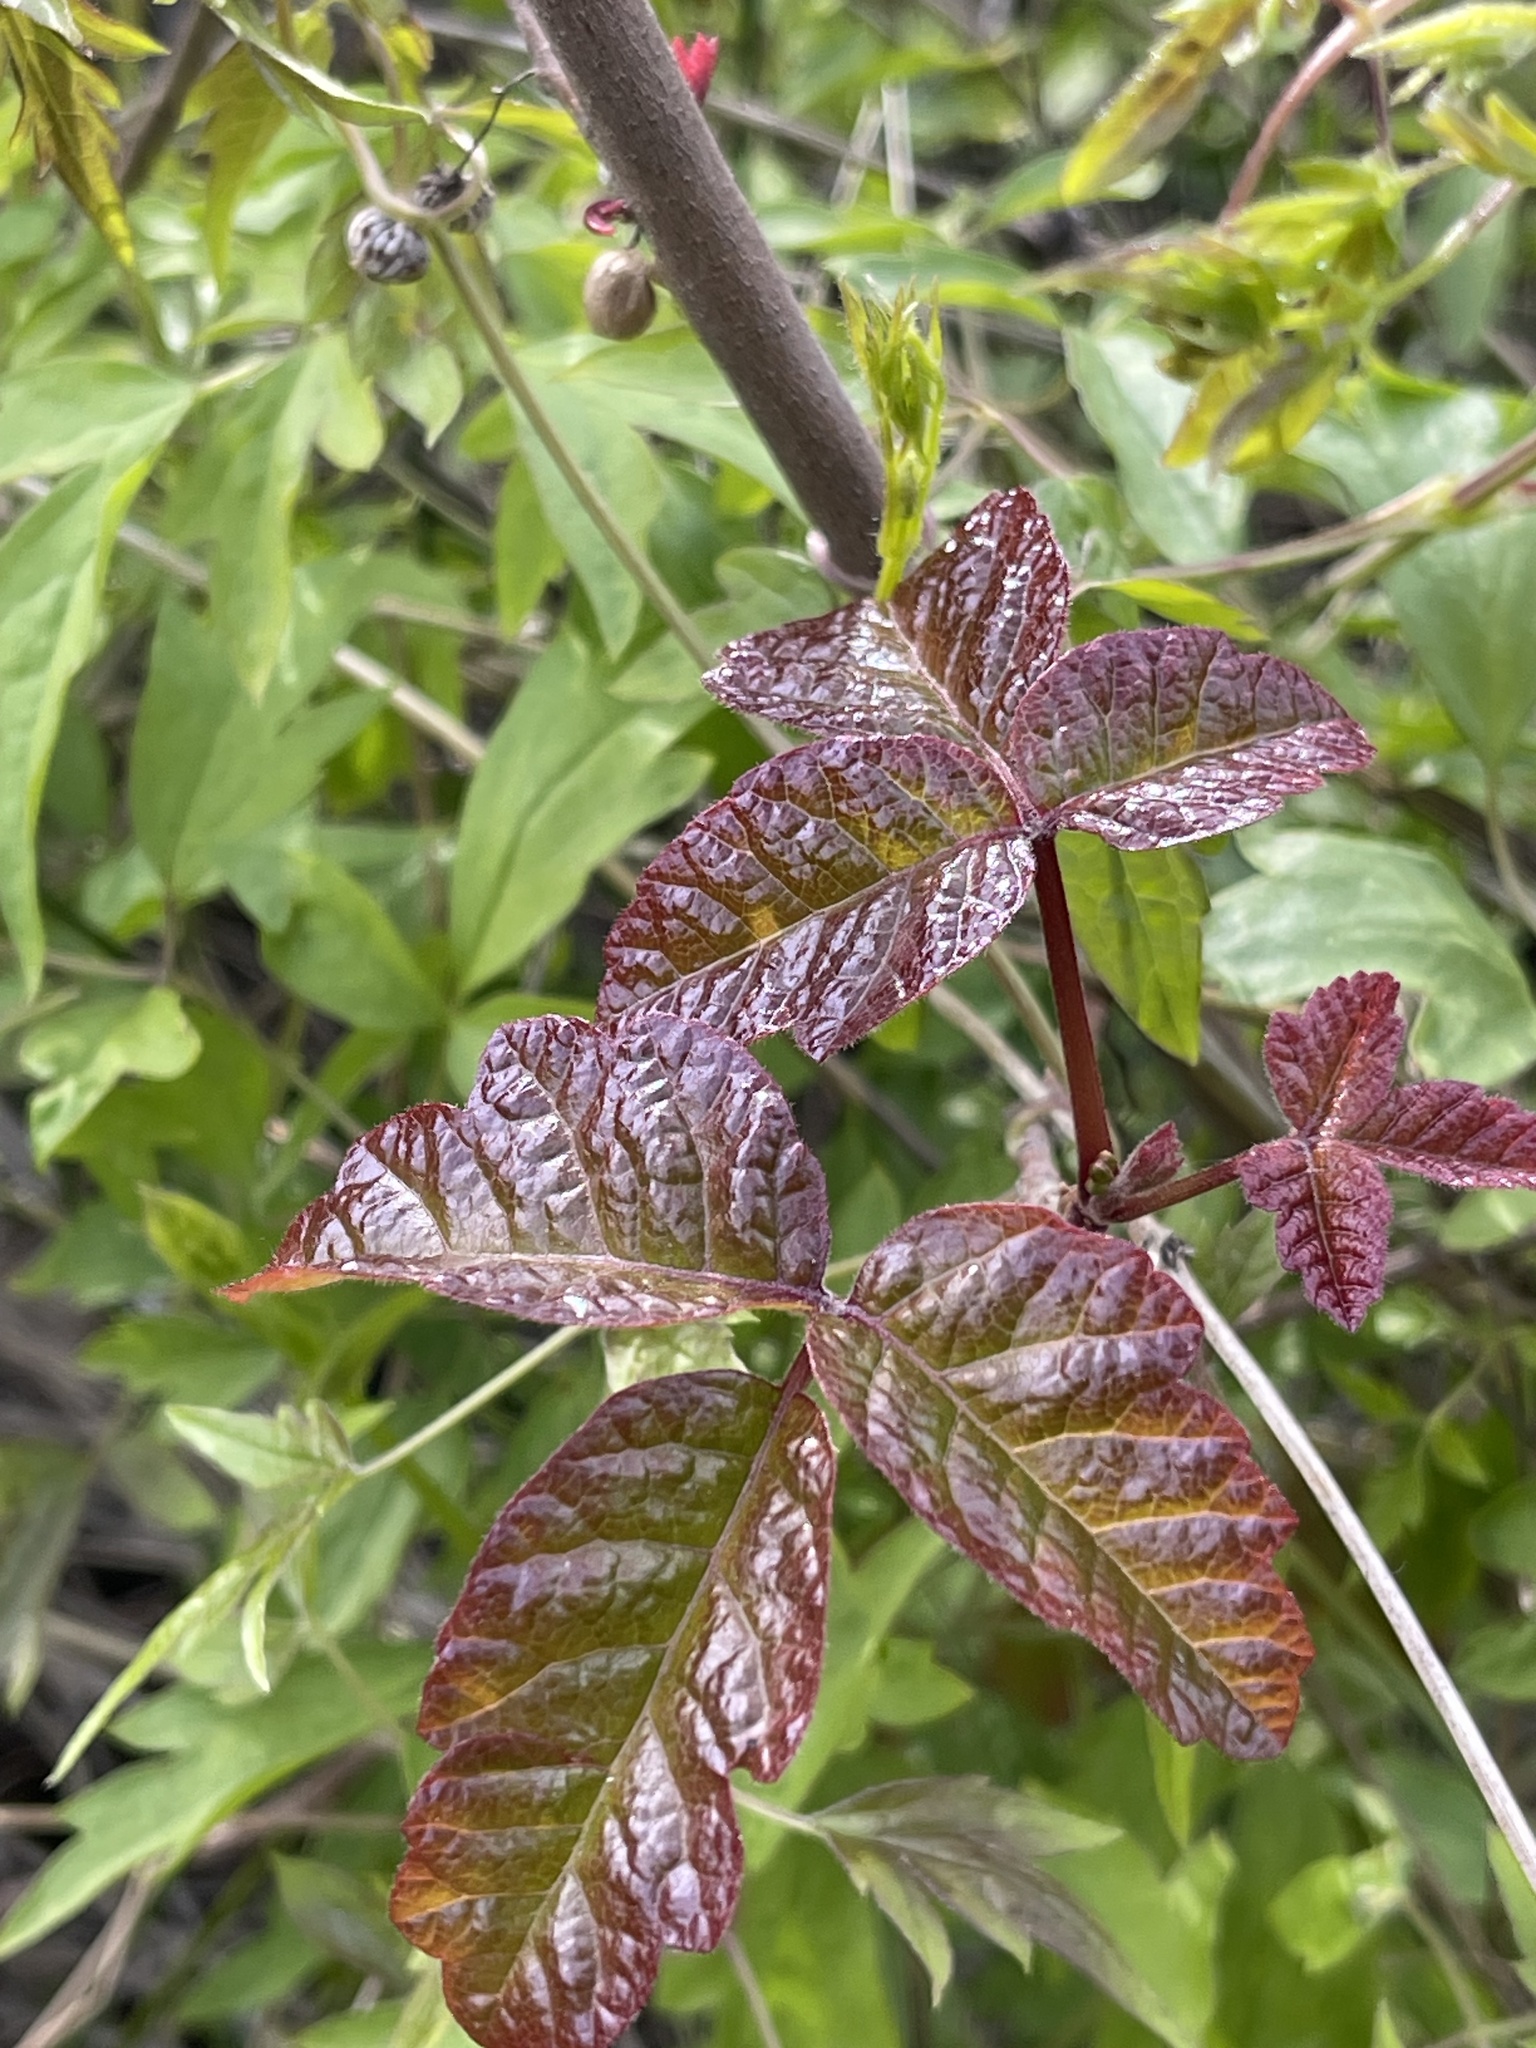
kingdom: Plantae
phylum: Tracheophyta
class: Magnoliopsida
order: Sapindales
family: Anacardiaceae
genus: Toxicodendron
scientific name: Toxicodendron diversilobum
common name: Pacific poison-oak
